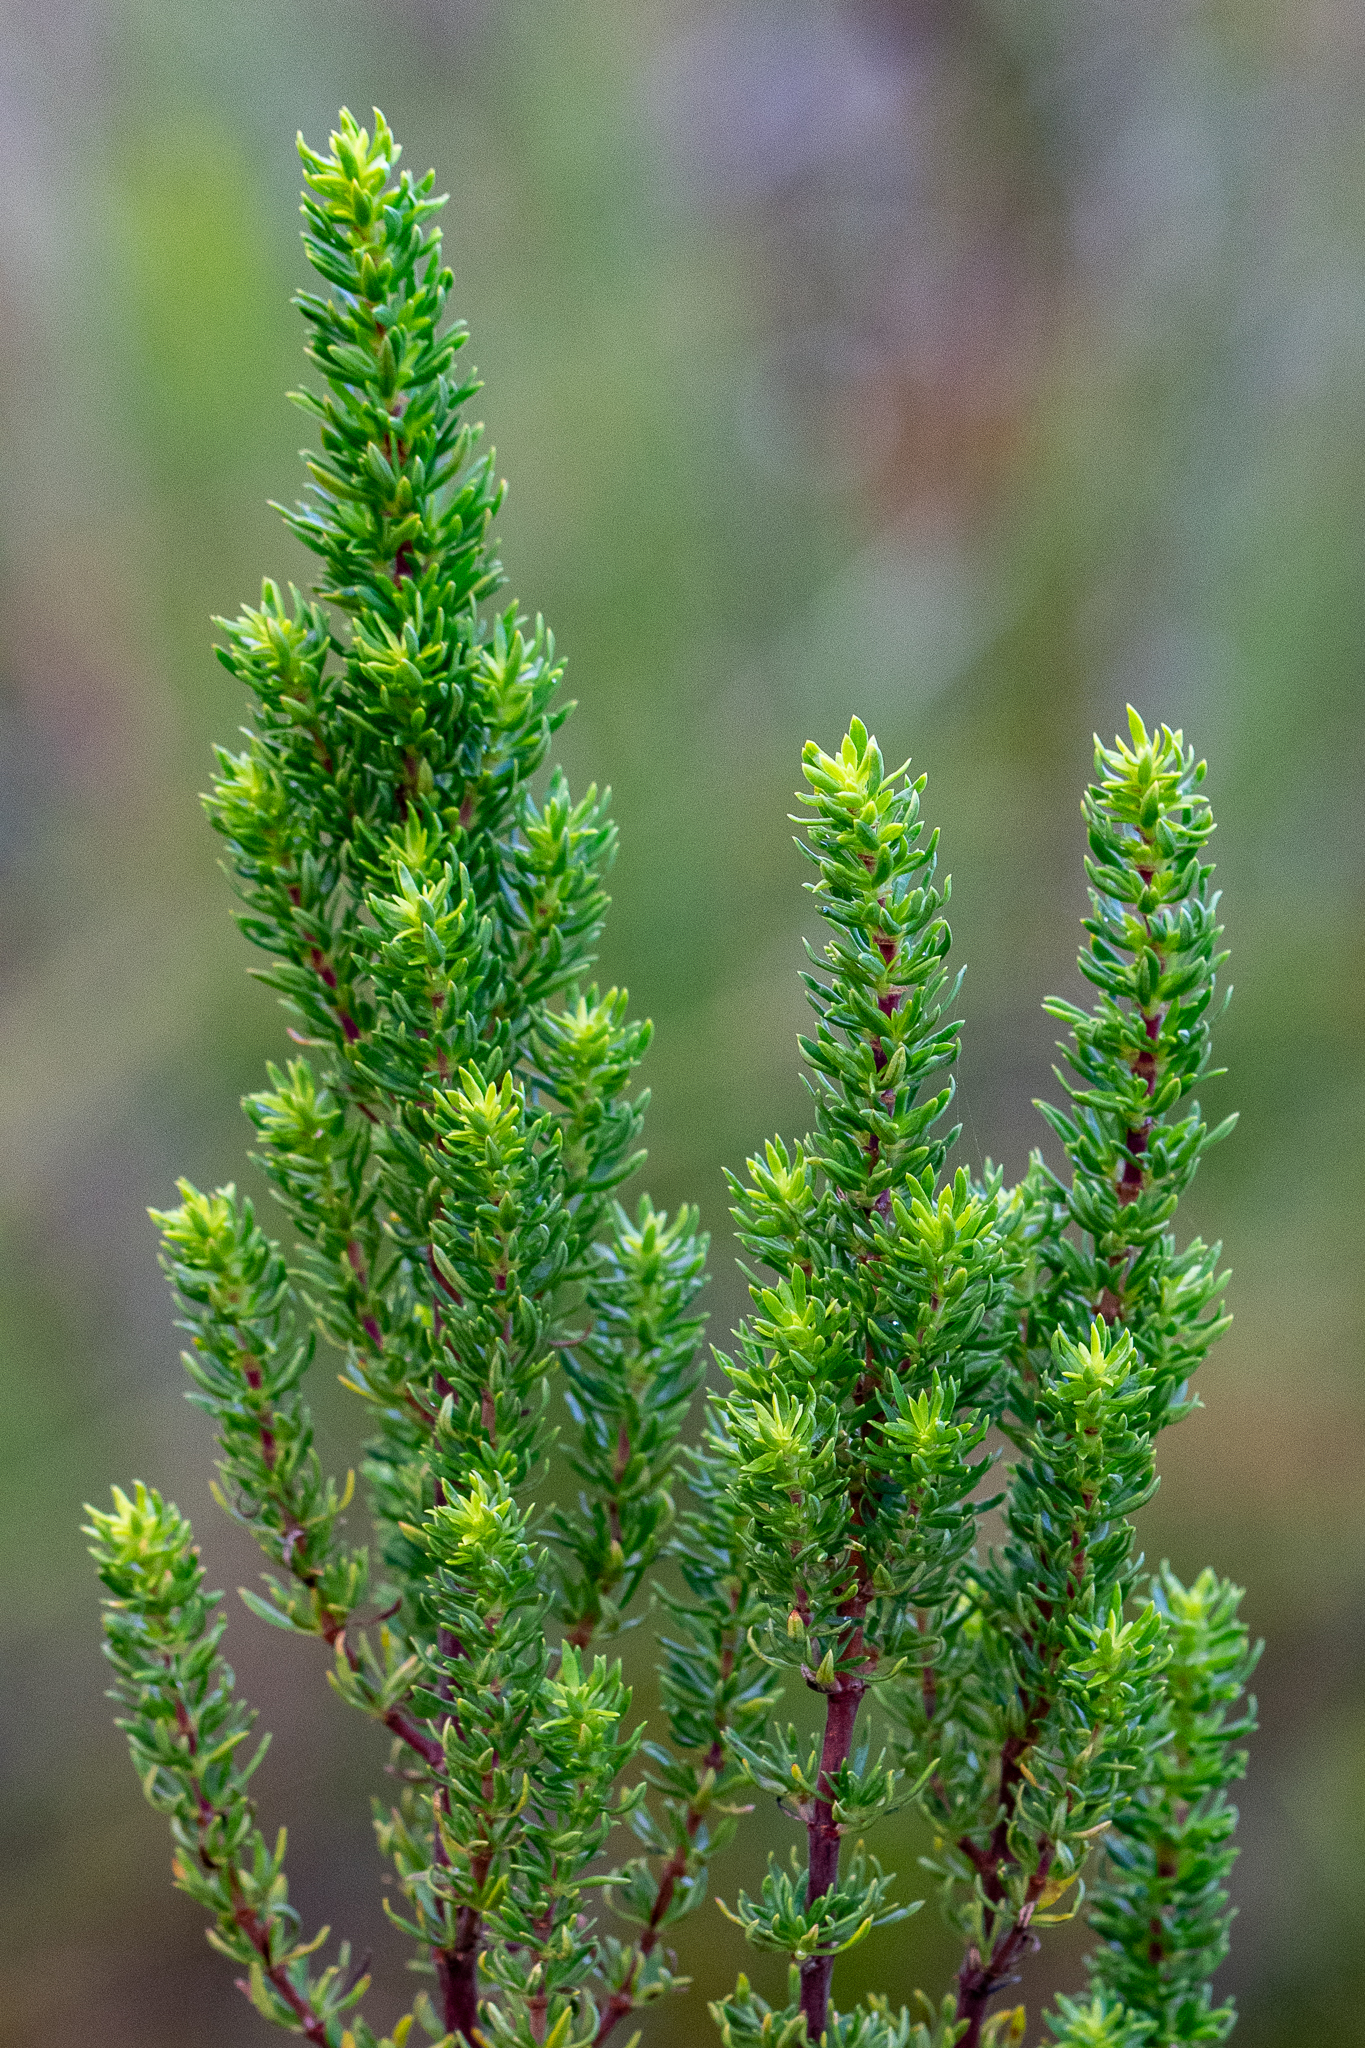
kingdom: Plantae
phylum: Tracheophyta
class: Magnoliopsida
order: Gentianales
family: Rubiaceae
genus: Anthospermum
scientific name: Anthospermum aethiopicum
